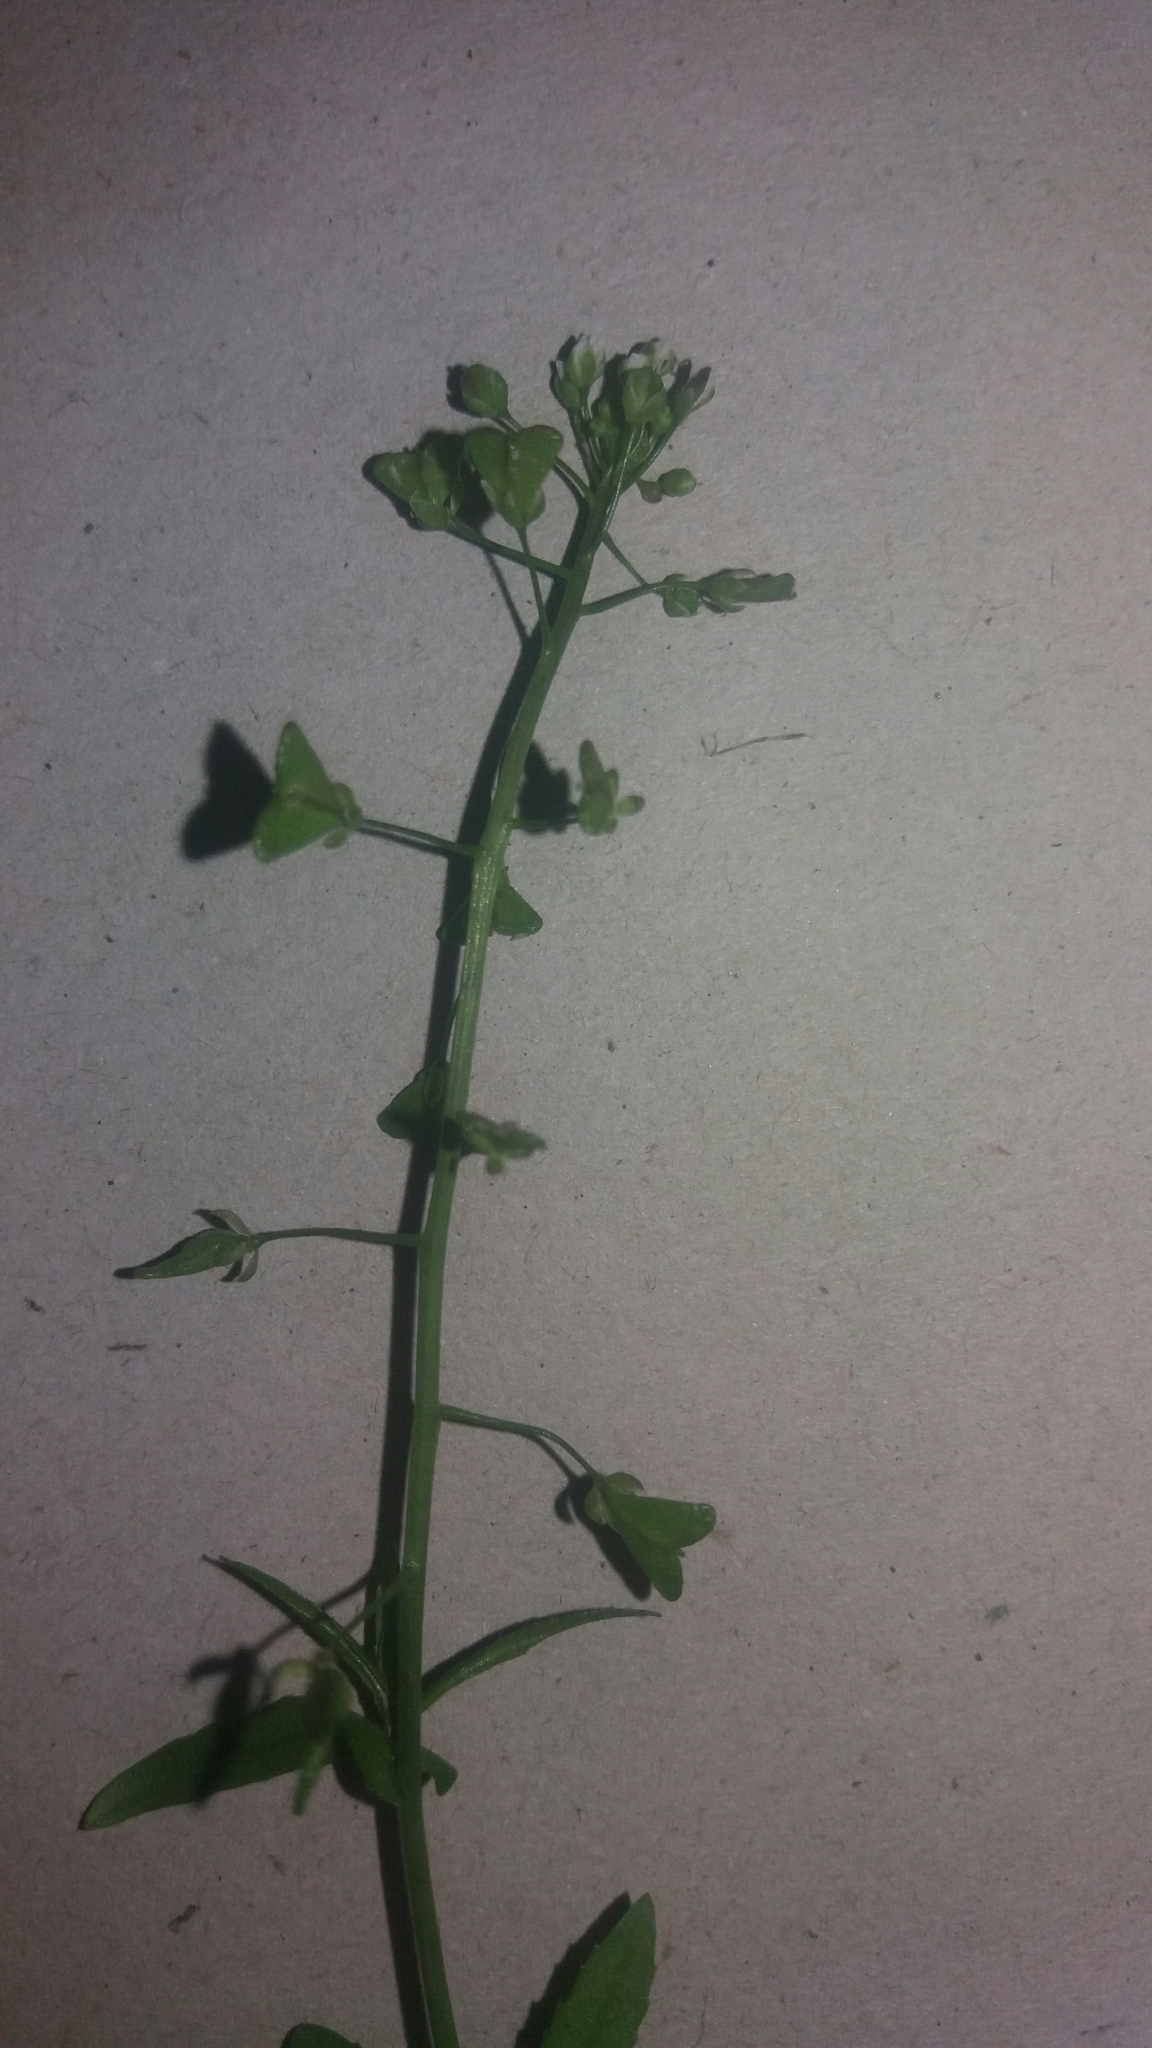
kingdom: Plantae
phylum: Tracheophyta
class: Magnoliopsida
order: Brassicales
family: Brassicaceae
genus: Capsella
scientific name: Capsella bursa-pastoris
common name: Shepherd's purse
